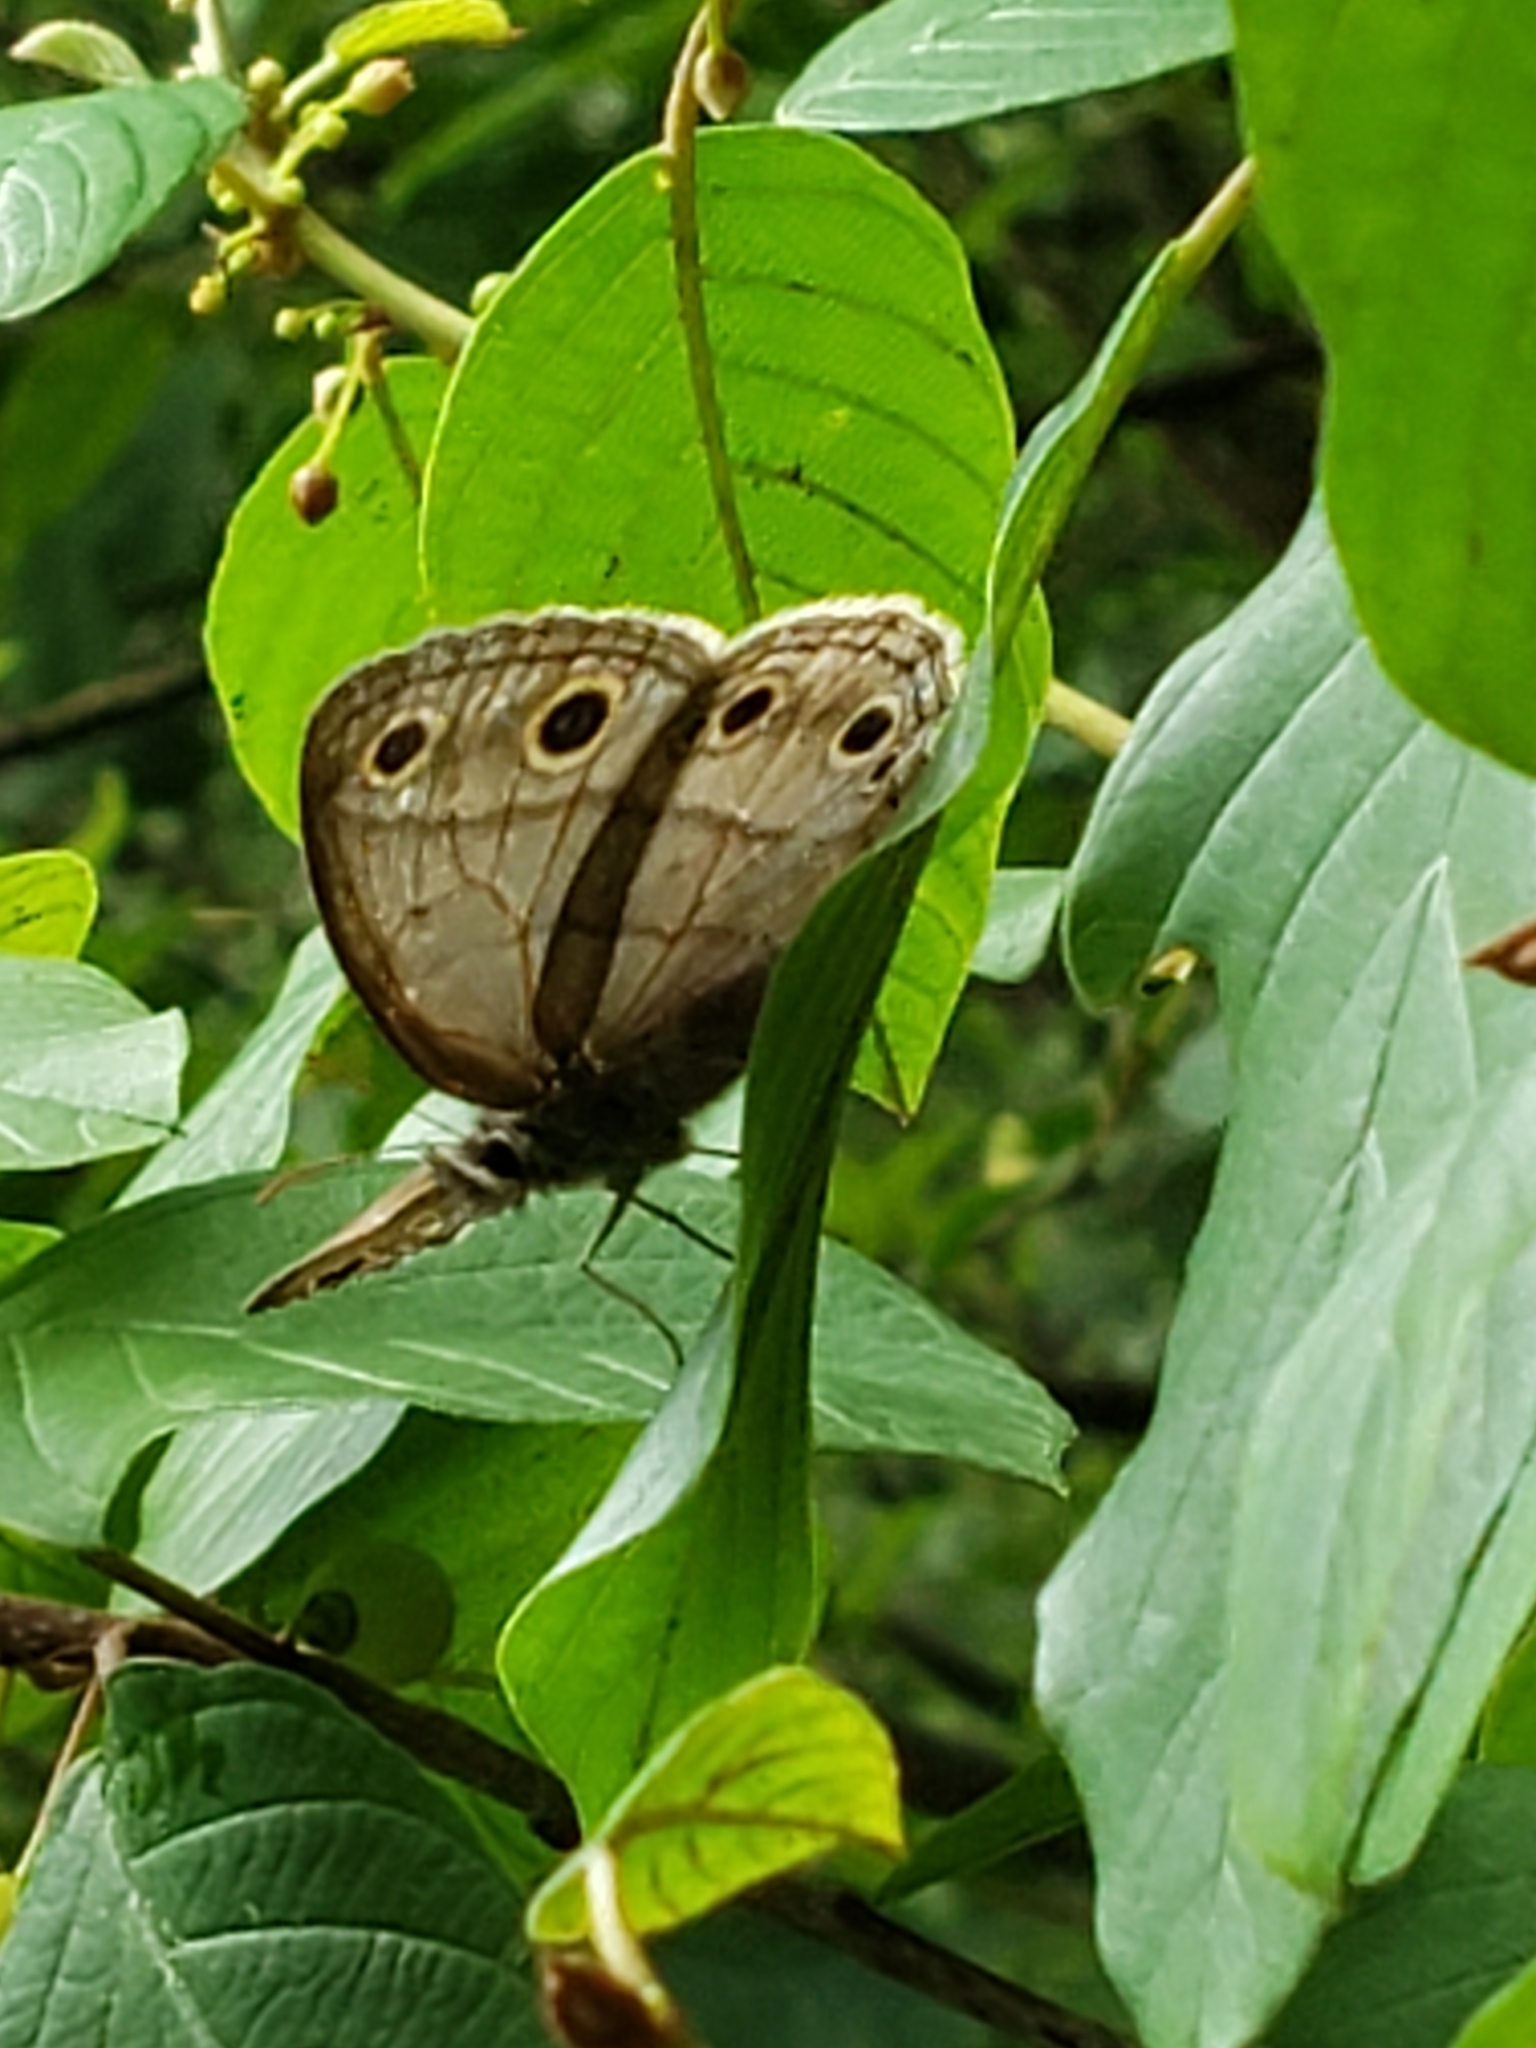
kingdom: Animalia
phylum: Arthropoda
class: Insecta
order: Lepidoptera
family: Nymphalidae
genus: Euptychia
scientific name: Euptychia cymela
